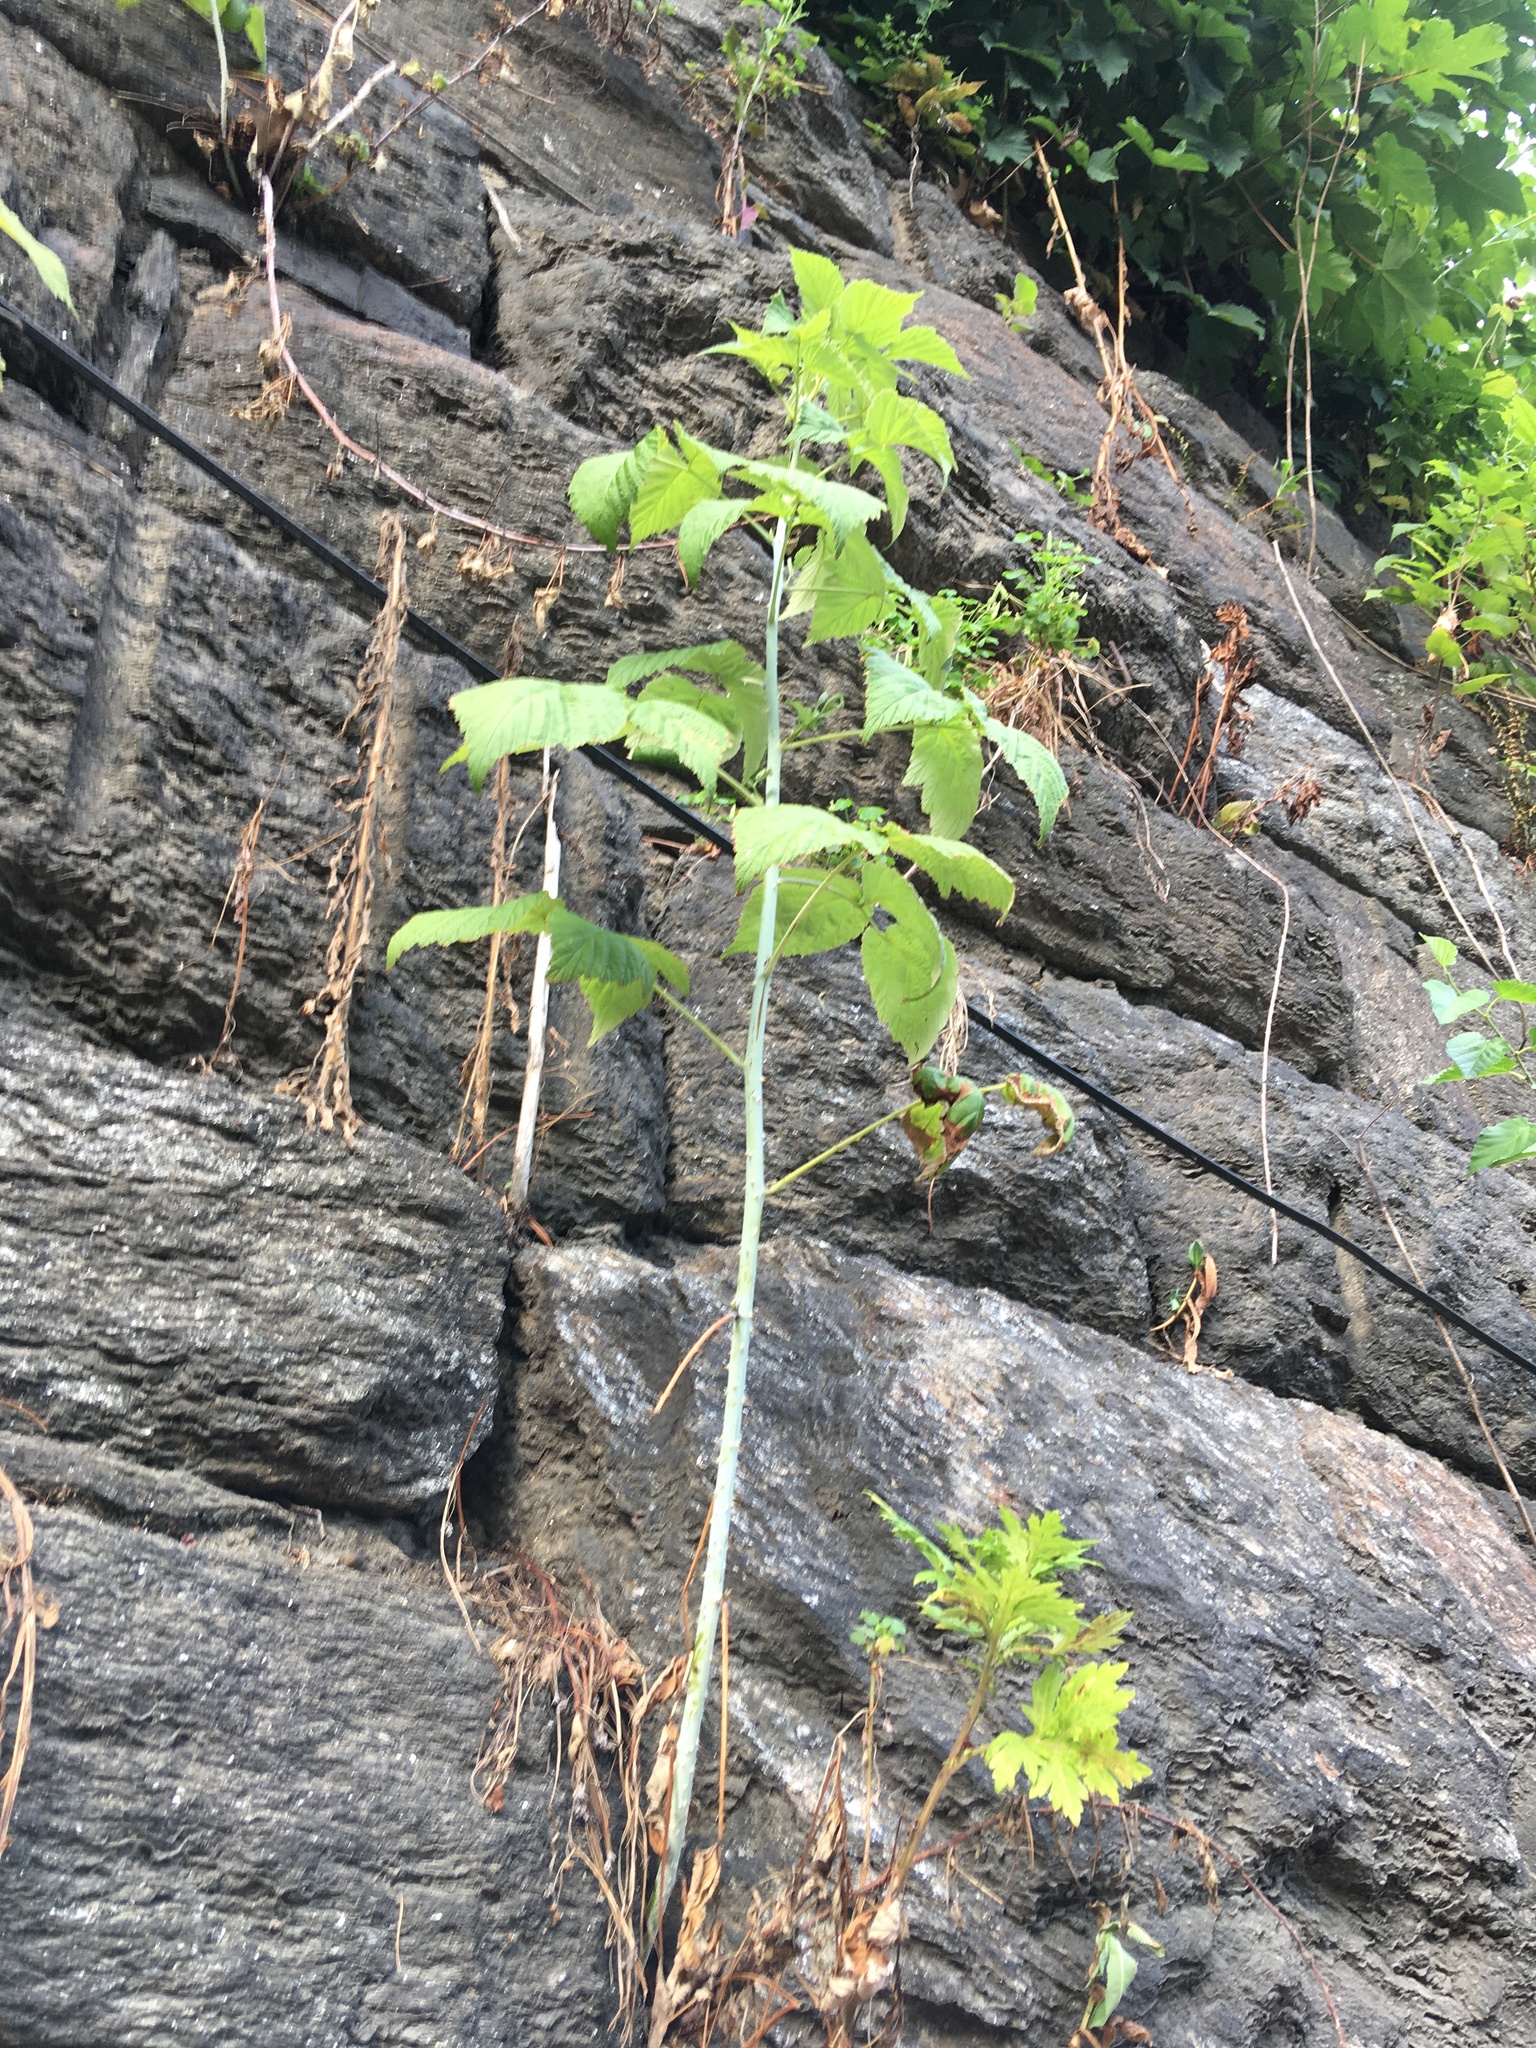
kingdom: Plantae
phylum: Tracheophyta
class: Magnoliopsida
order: Rosales
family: Rosaceae
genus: Rubus
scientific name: Rubus occidentalis
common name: Black raspberry
